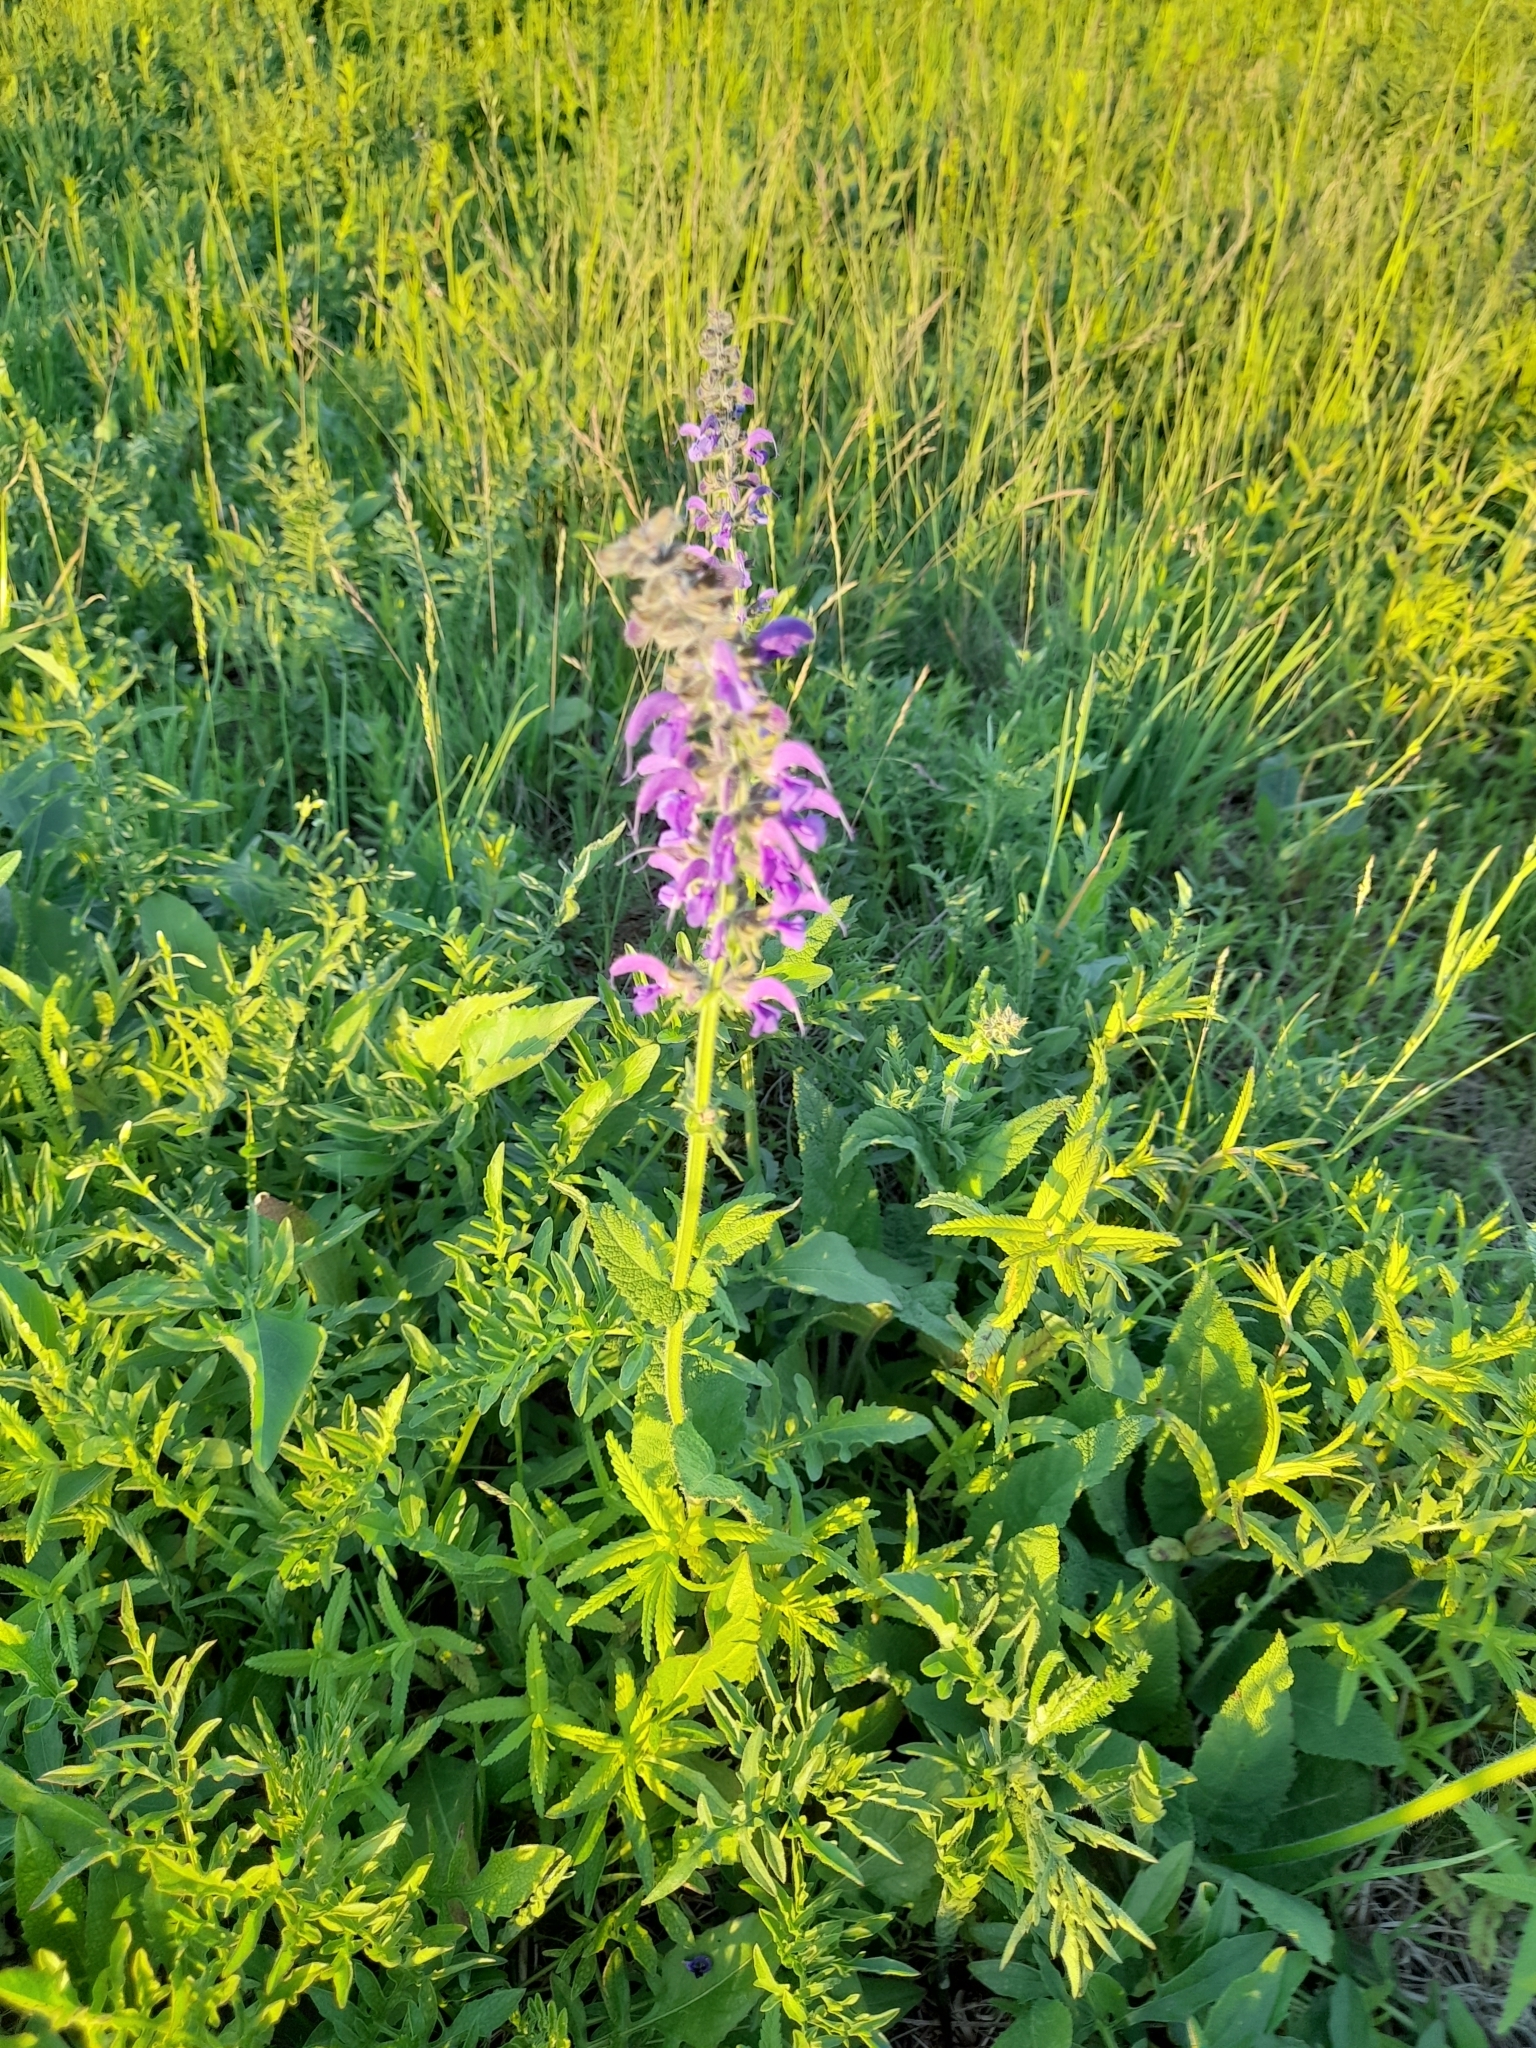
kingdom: Plantae
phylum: Tracheophyta
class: Magnoliopsida
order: Lamiales
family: Lamiaceae
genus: Salvia
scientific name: Salvia pratensis
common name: Meadow sage
